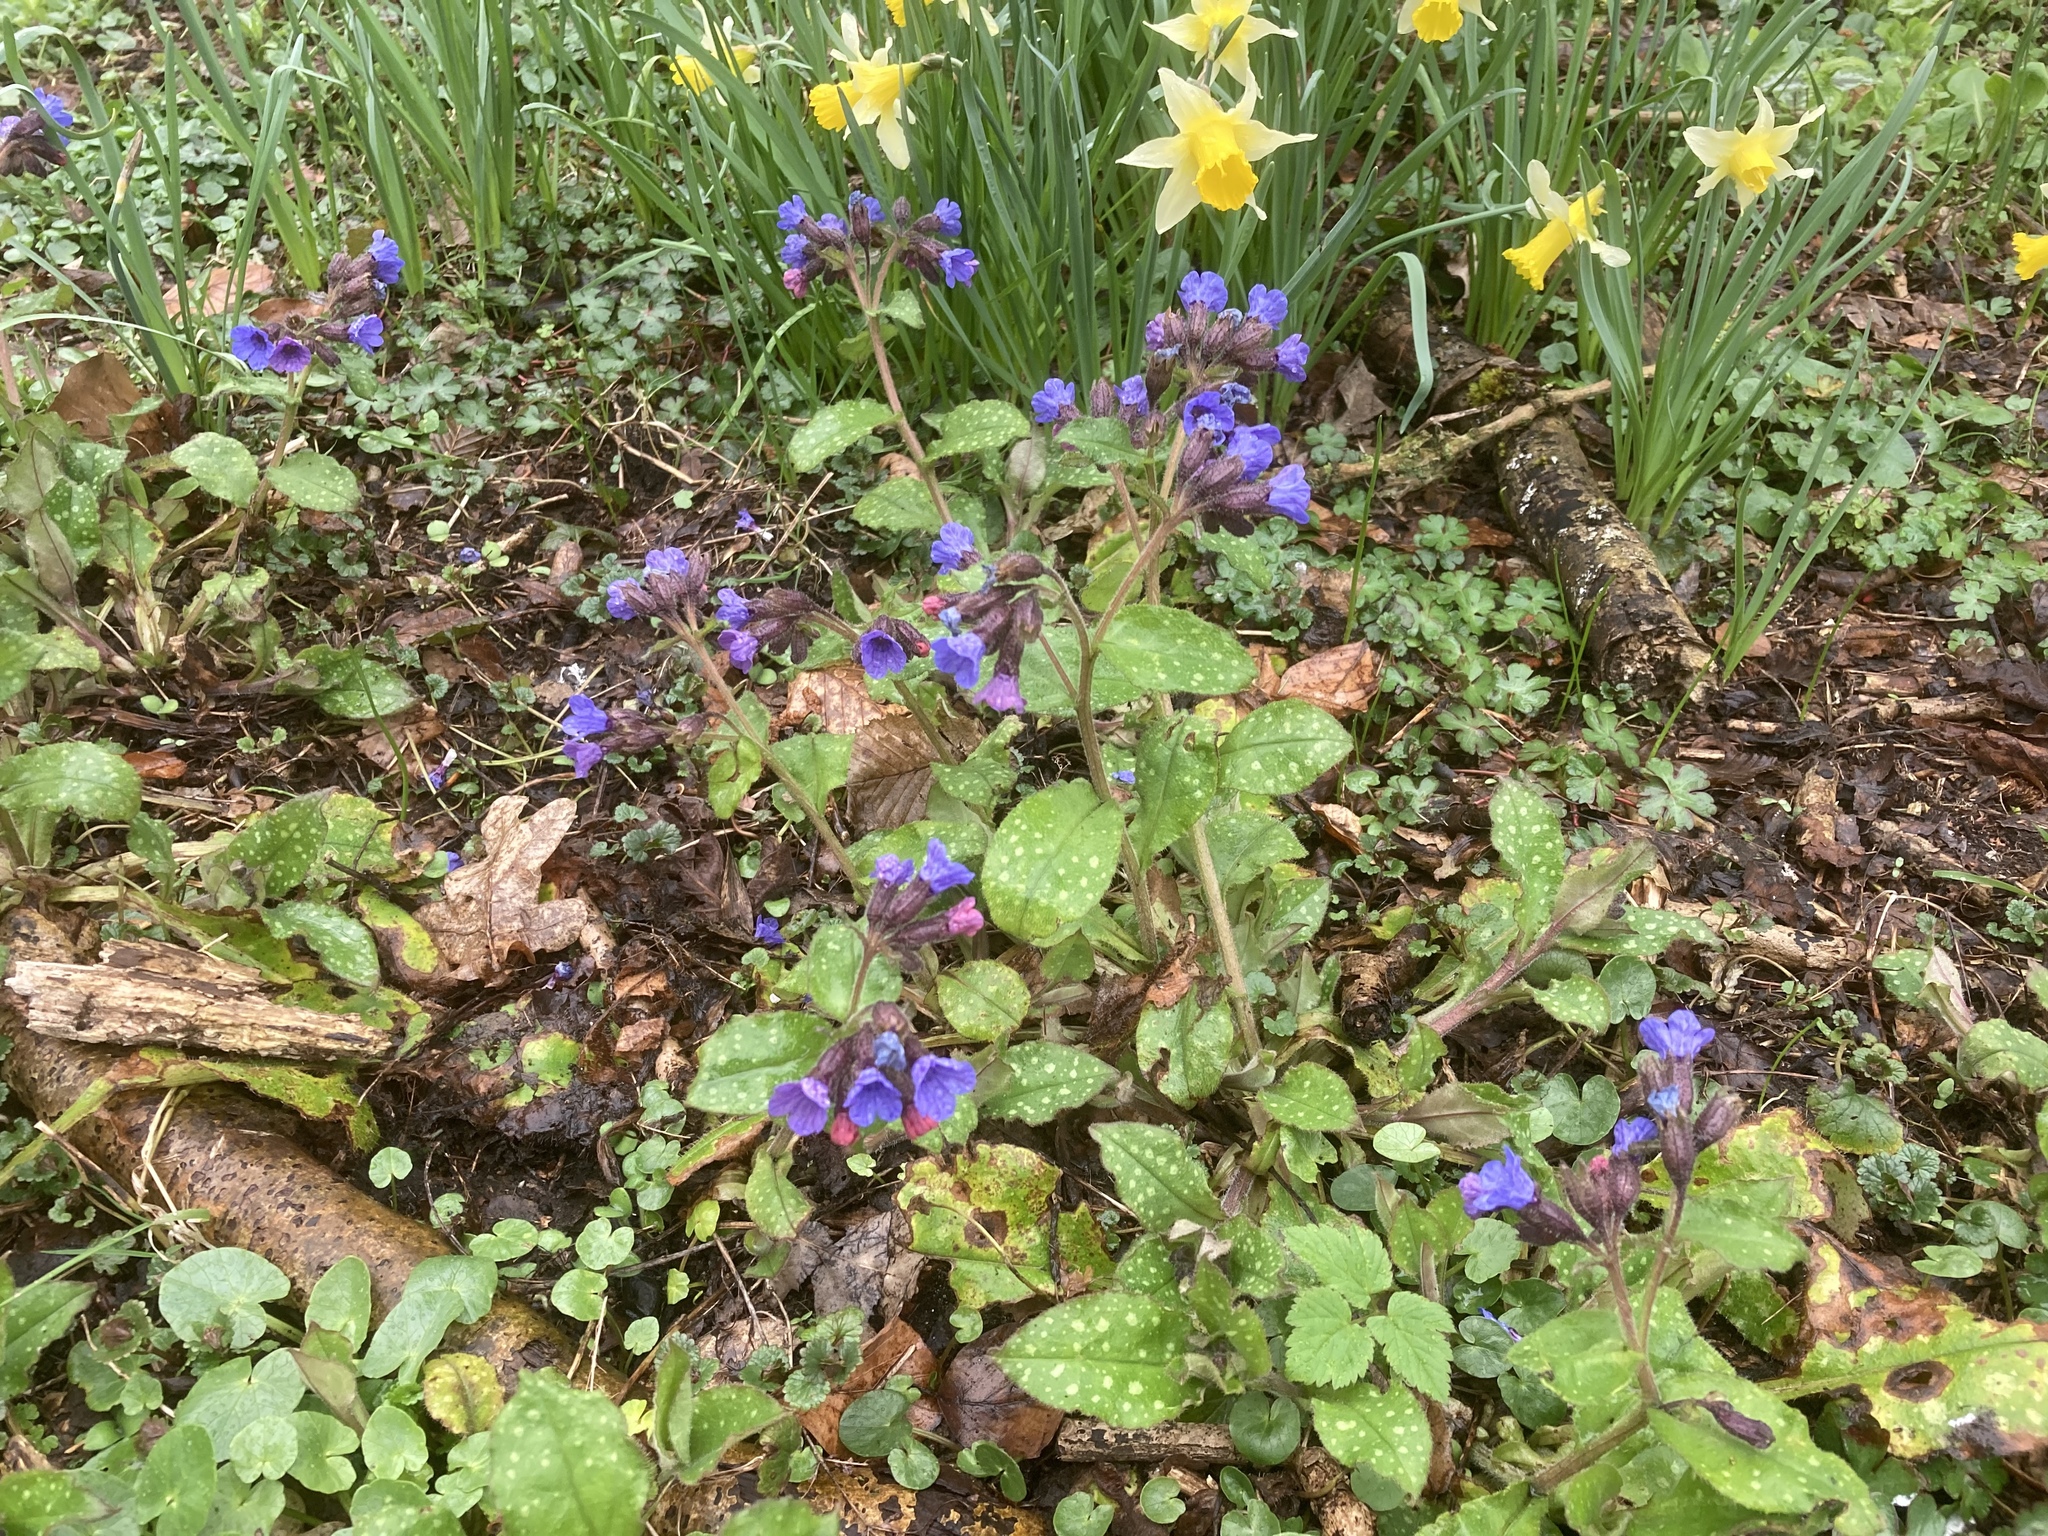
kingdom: Plantae
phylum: Tracheophyta
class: Magnoliopsida
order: Boraginales
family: Boraginaceae
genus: Pulmonaria
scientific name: Pulmonaria officinalis
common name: Lungwort
